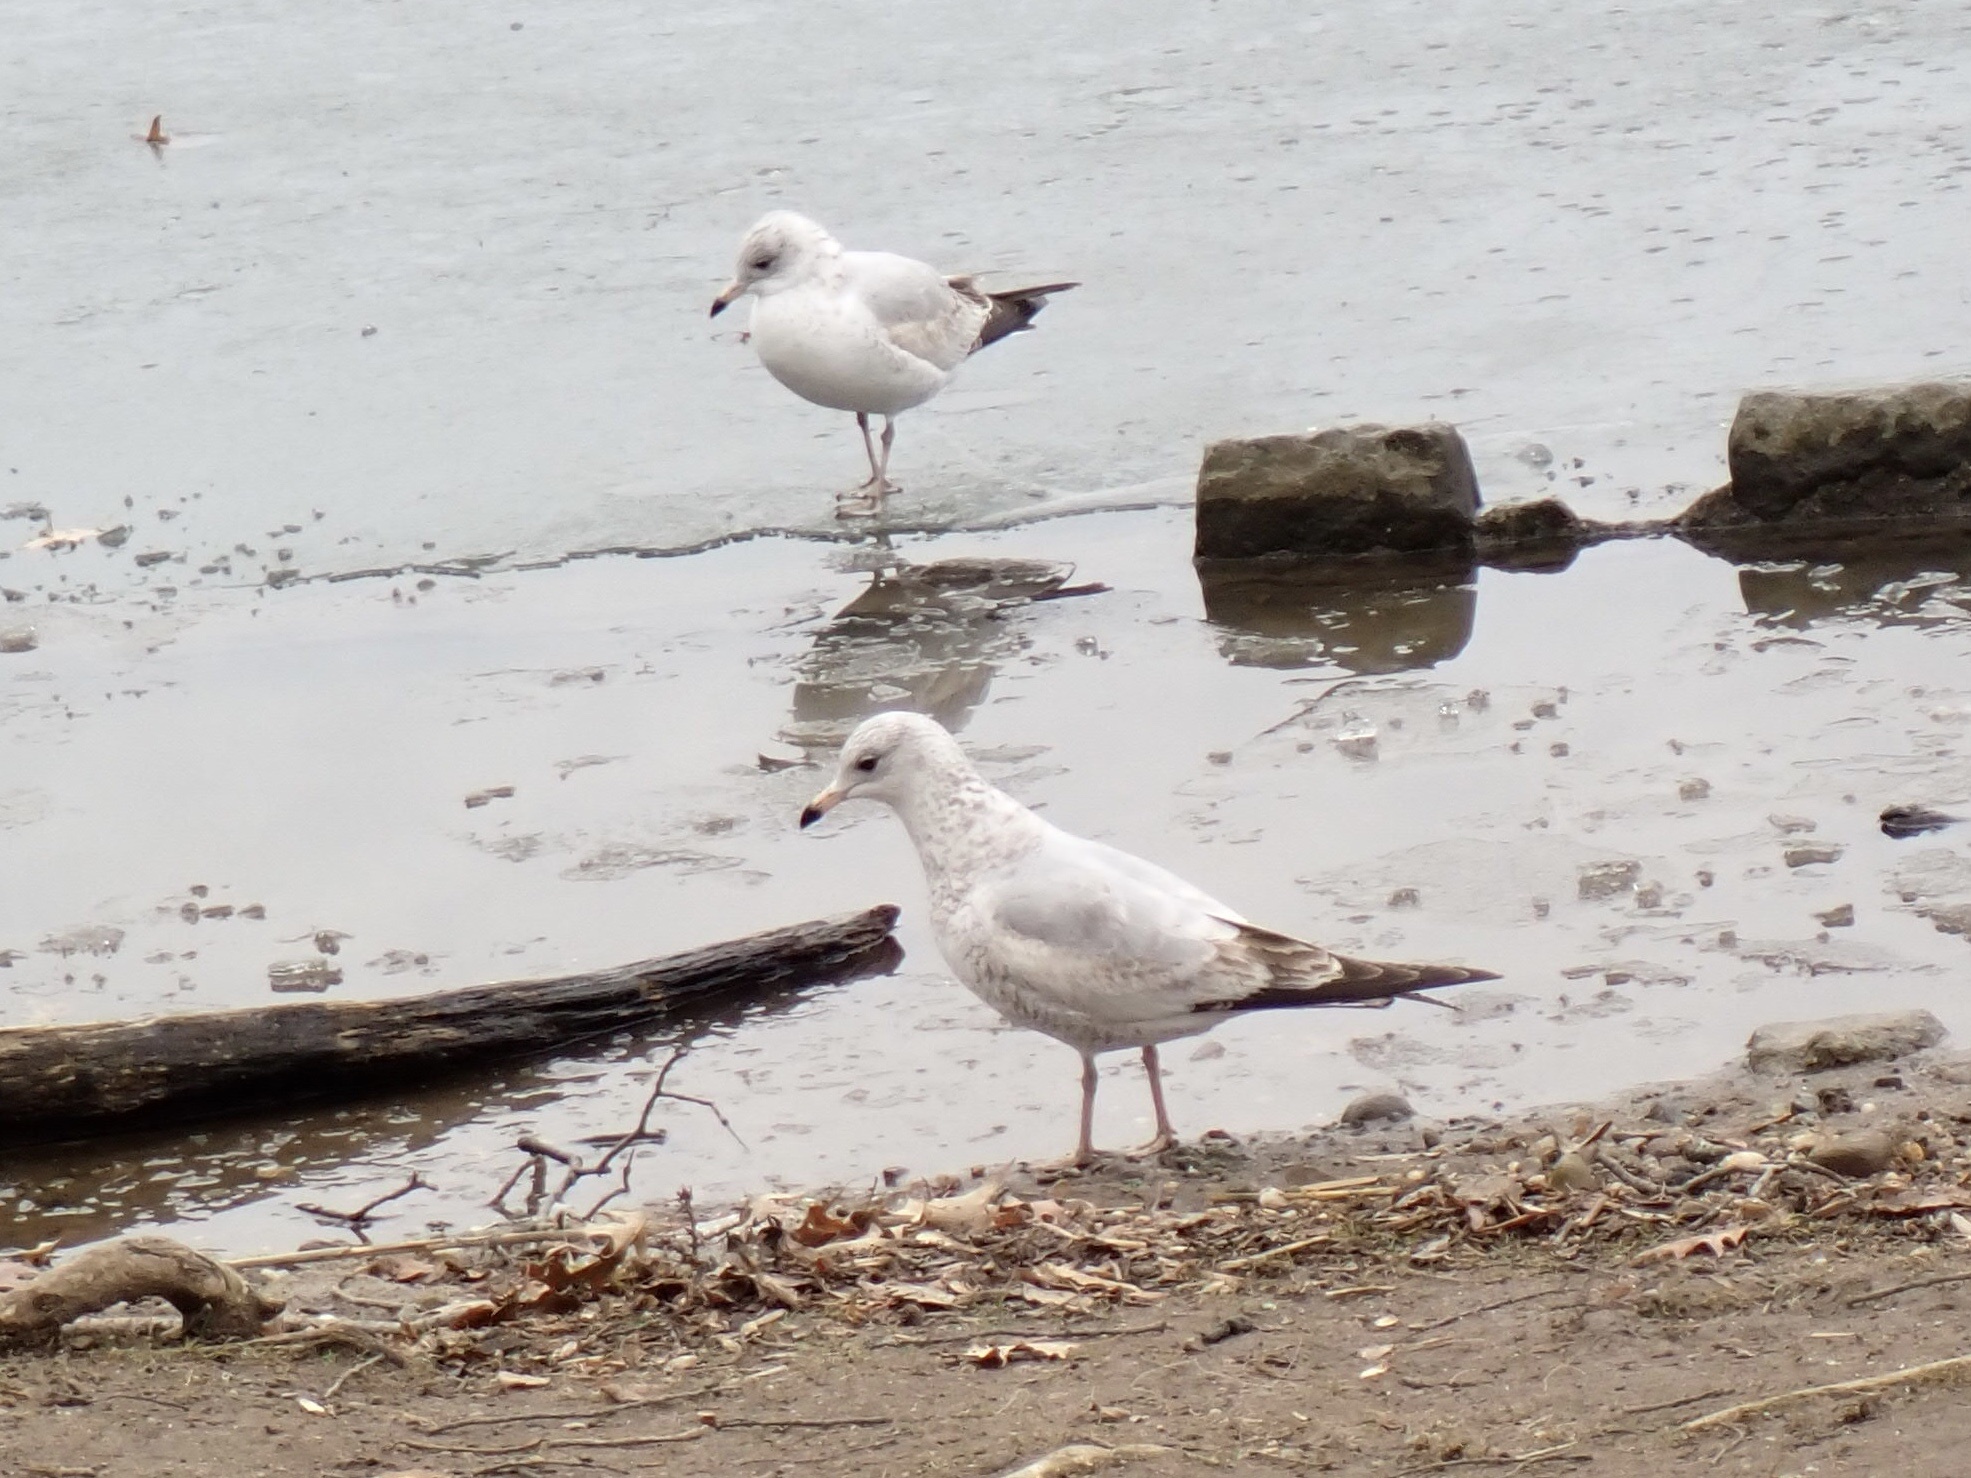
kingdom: Animalia
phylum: Chordata
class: Aves
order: Charadriiformes
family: Laridae
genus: Larus
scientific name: Larus delawarensis
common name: Ring-billed gull
